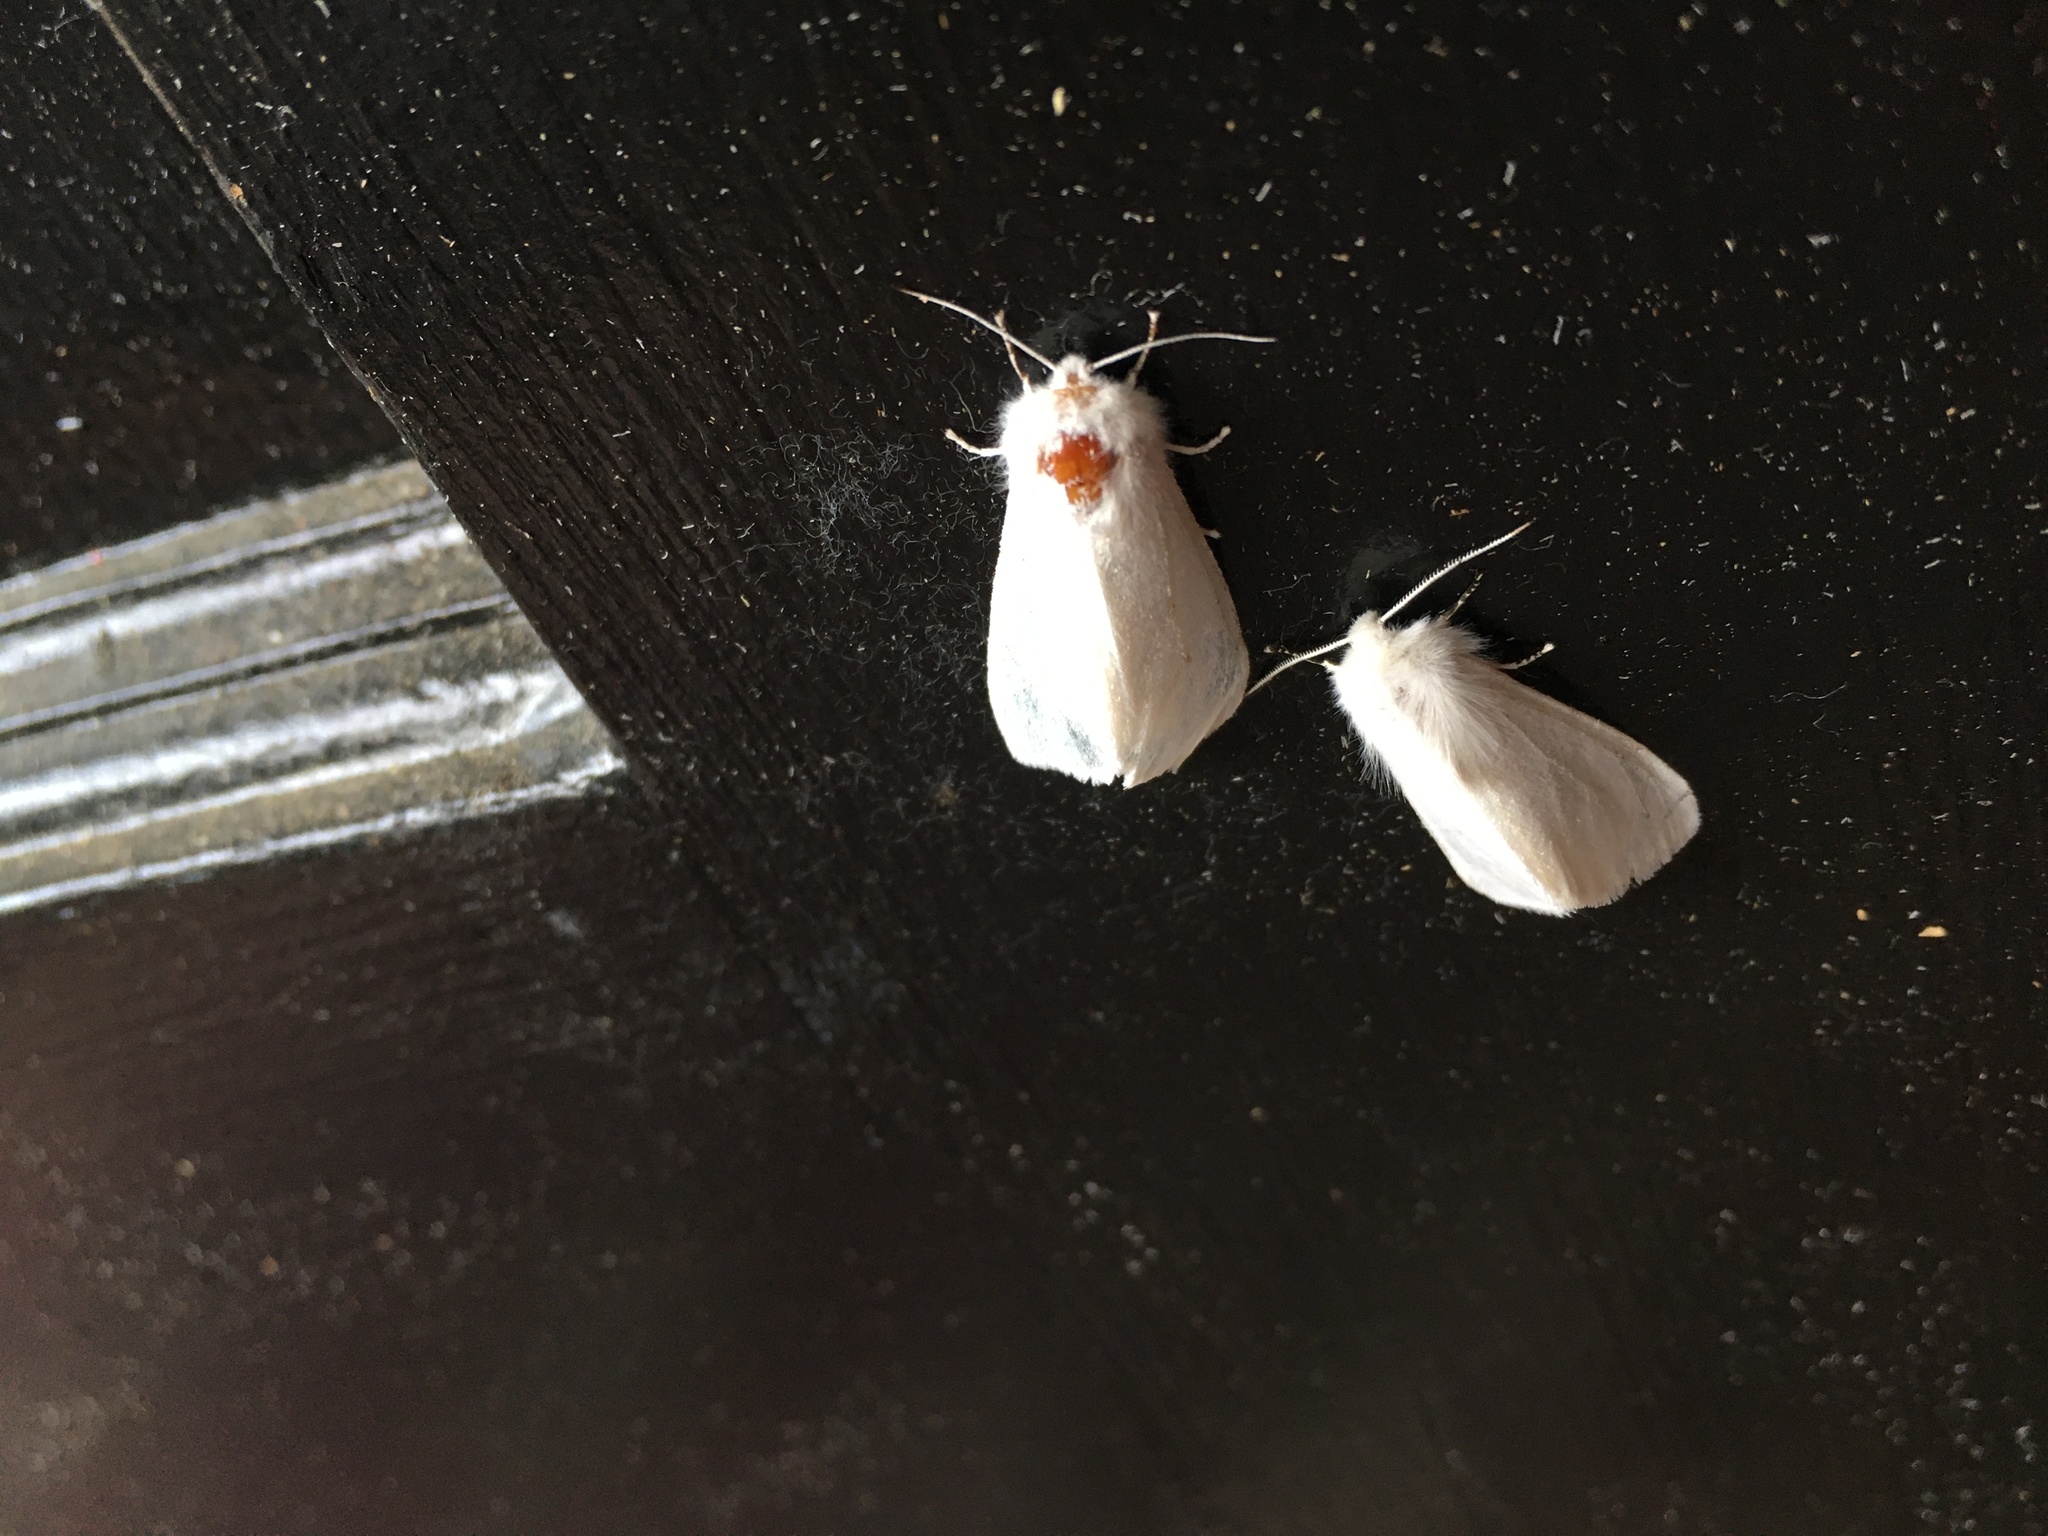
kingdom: Animalia
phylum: Arthropoda
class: Insecta
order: Lepidoptera
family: Erebidae
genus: Hyphantria
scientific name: Hyphantria cunea
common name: American white moth
